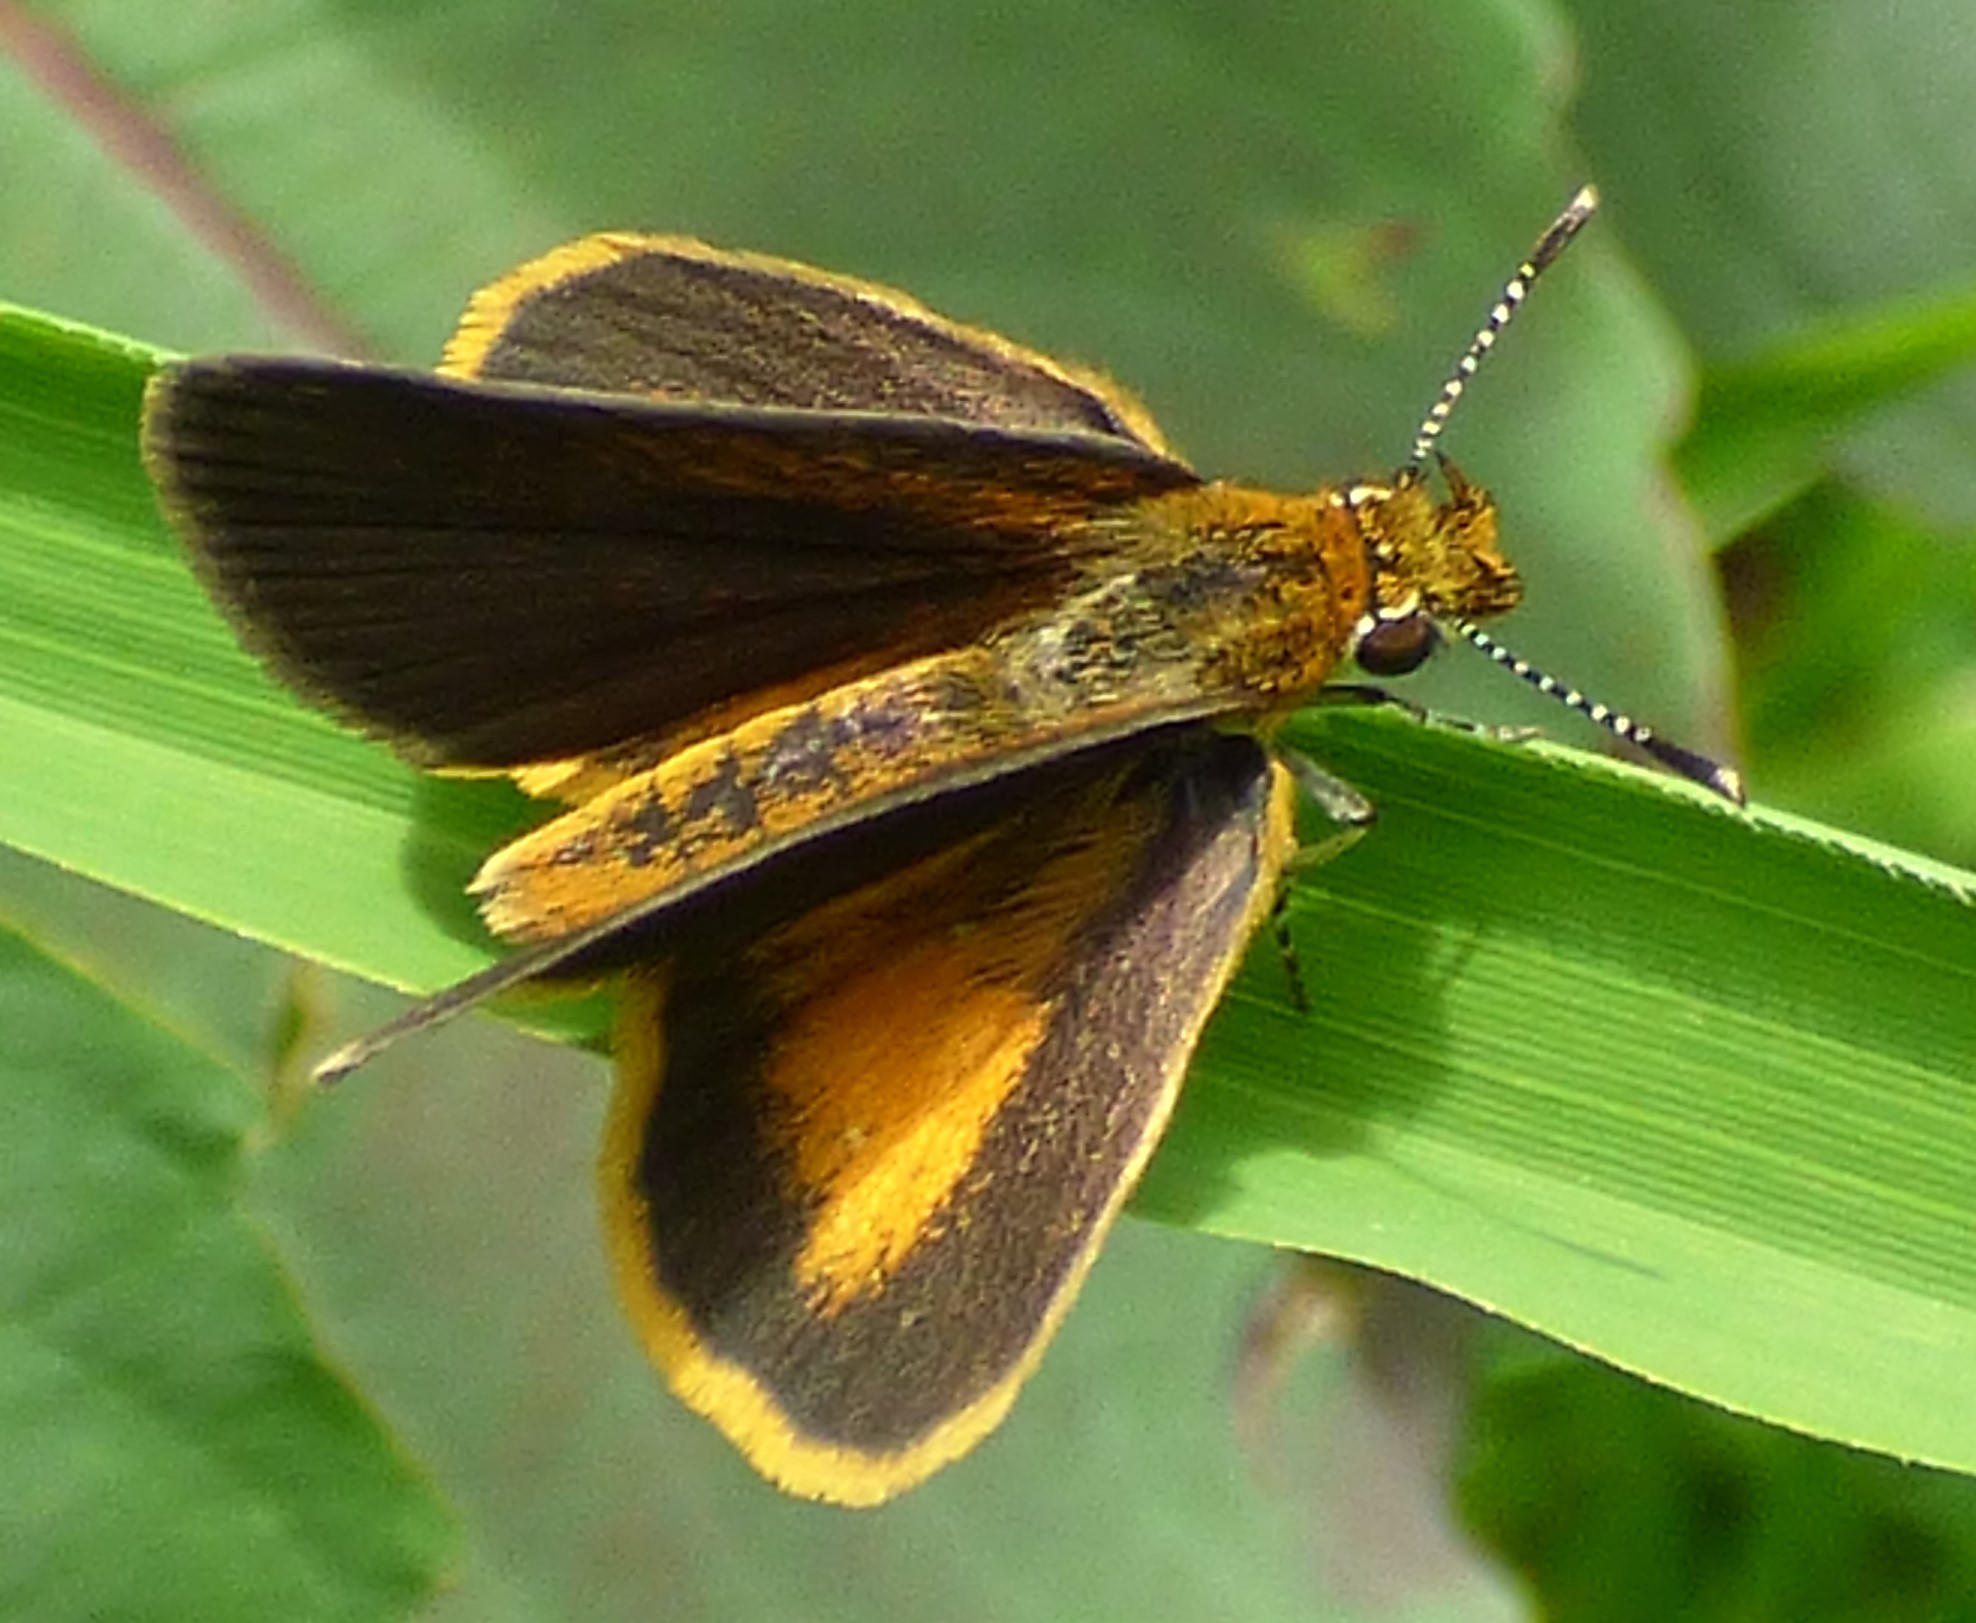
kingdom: Animalia
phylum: Arthropoda
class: Insecta
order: Lepidoptera
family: Hesperiidae
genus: Ancyloxypha
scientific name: Ancyloxypha numitor
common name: Least skipper
